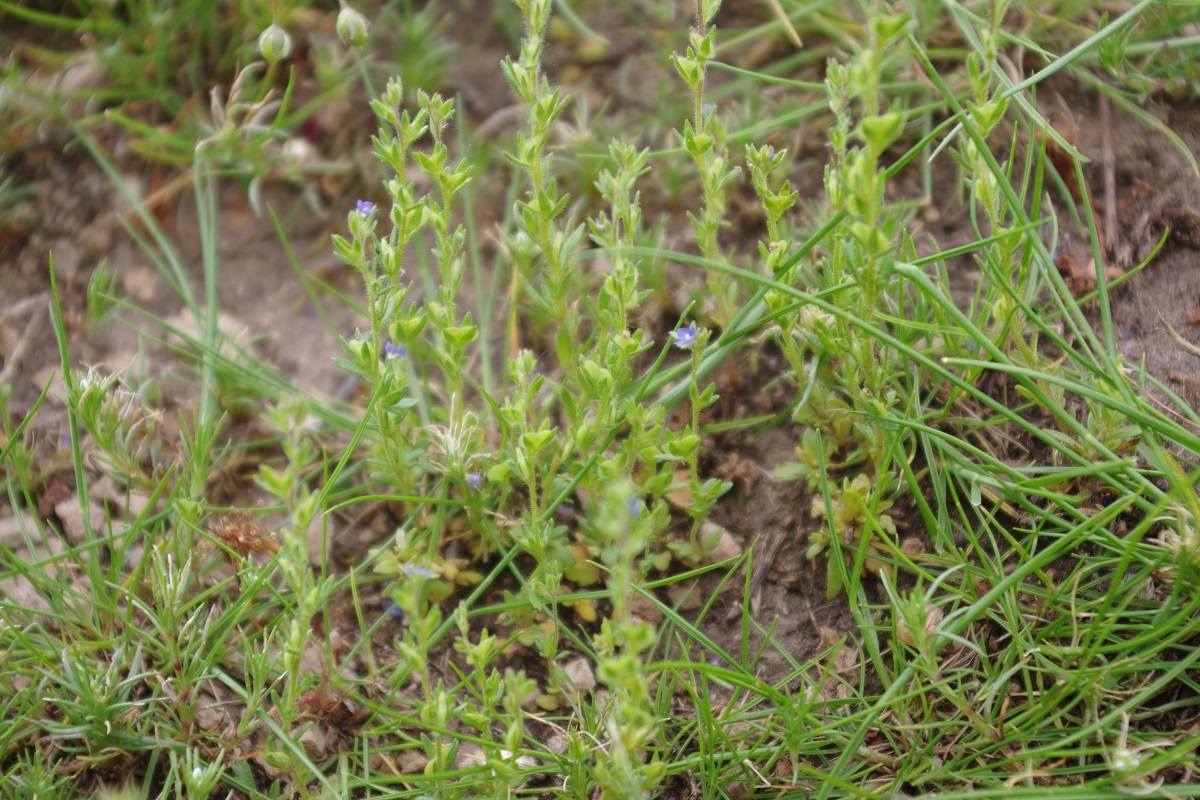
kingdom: Plantae
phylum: Tracheophyta
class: Magnoliopsida
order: Lamiales
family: Plantaginaceae
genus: Veronica
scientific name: Veronica verna
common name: Spring speedwell
